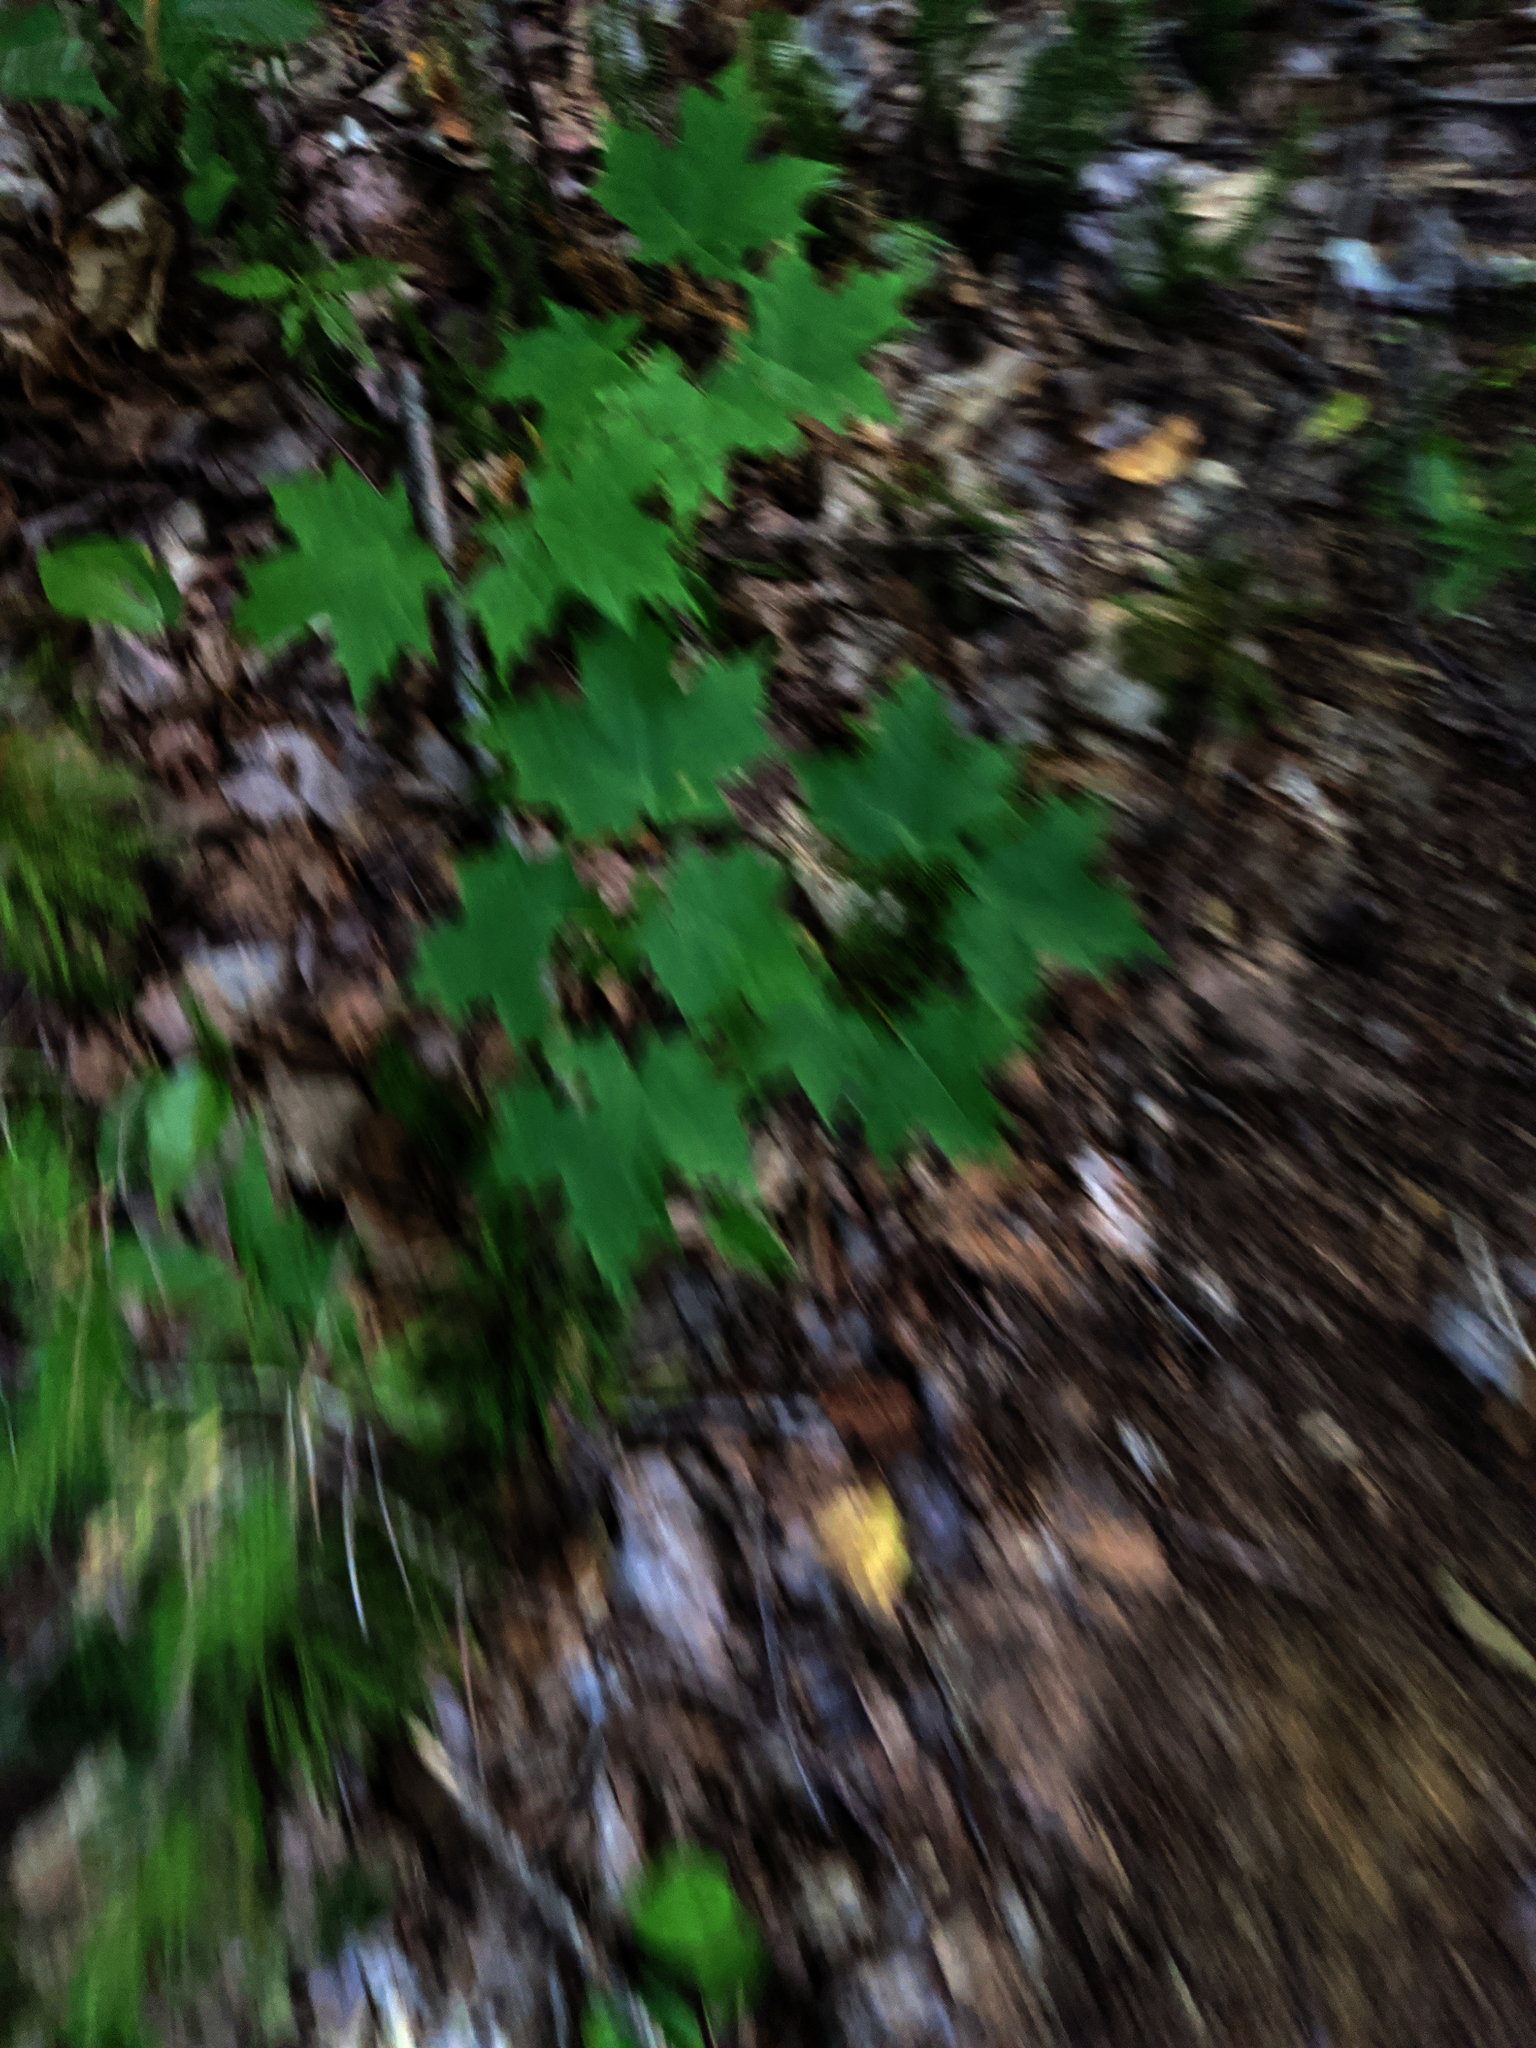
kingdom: Plantae
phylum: Tracheophyta
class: Magnoliopsida
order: Sapindales
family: Sapindaceae
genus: Acer
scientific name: Acer saccharum
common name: Sugar maple
